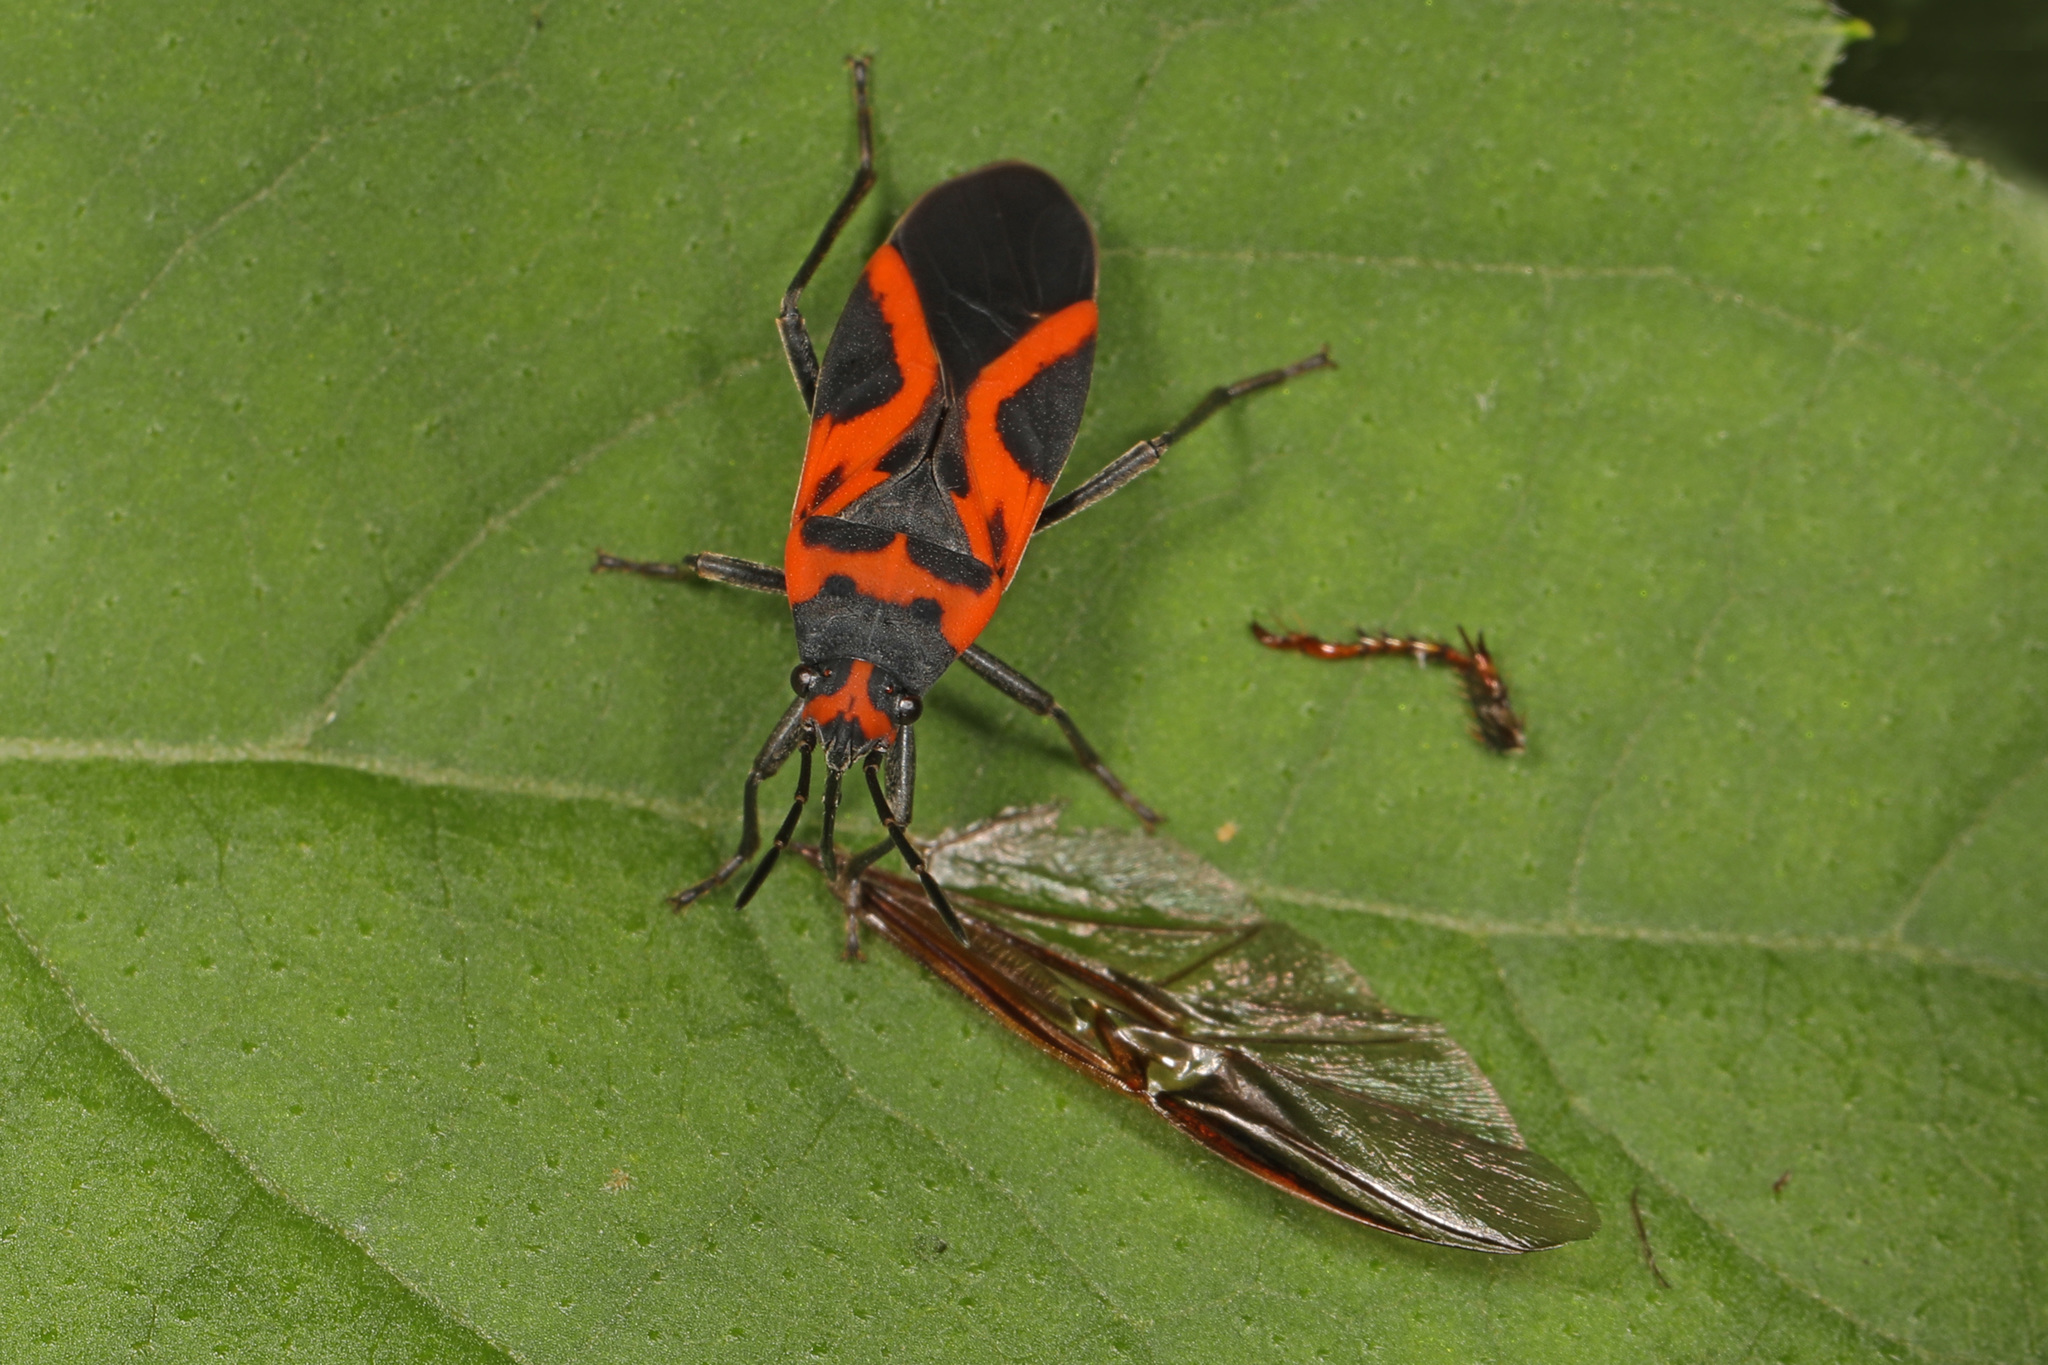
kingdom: Animalia
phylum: Arthropoda
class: Insecta
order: Hemiptera
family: Lygaeidae
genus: Lygaeus
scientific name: Lygaeus turcicus
